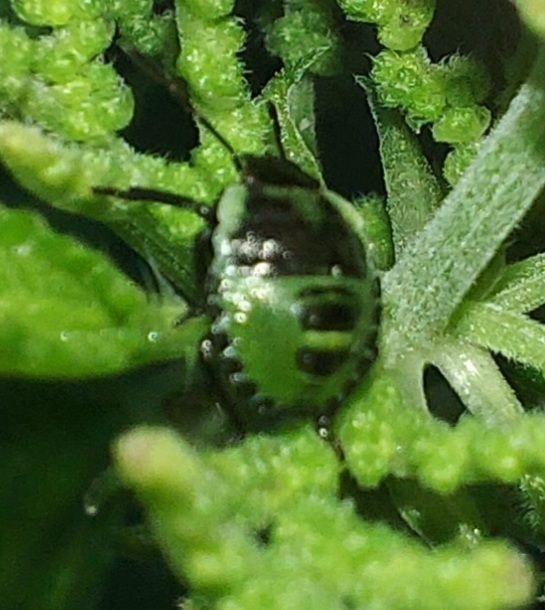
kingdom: Animalia
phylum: Arthropoda
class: Insecta
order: Hemiptera
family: Pentatomidae
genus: Palomena
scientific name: Palomena prasina
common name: Green shieldbug
